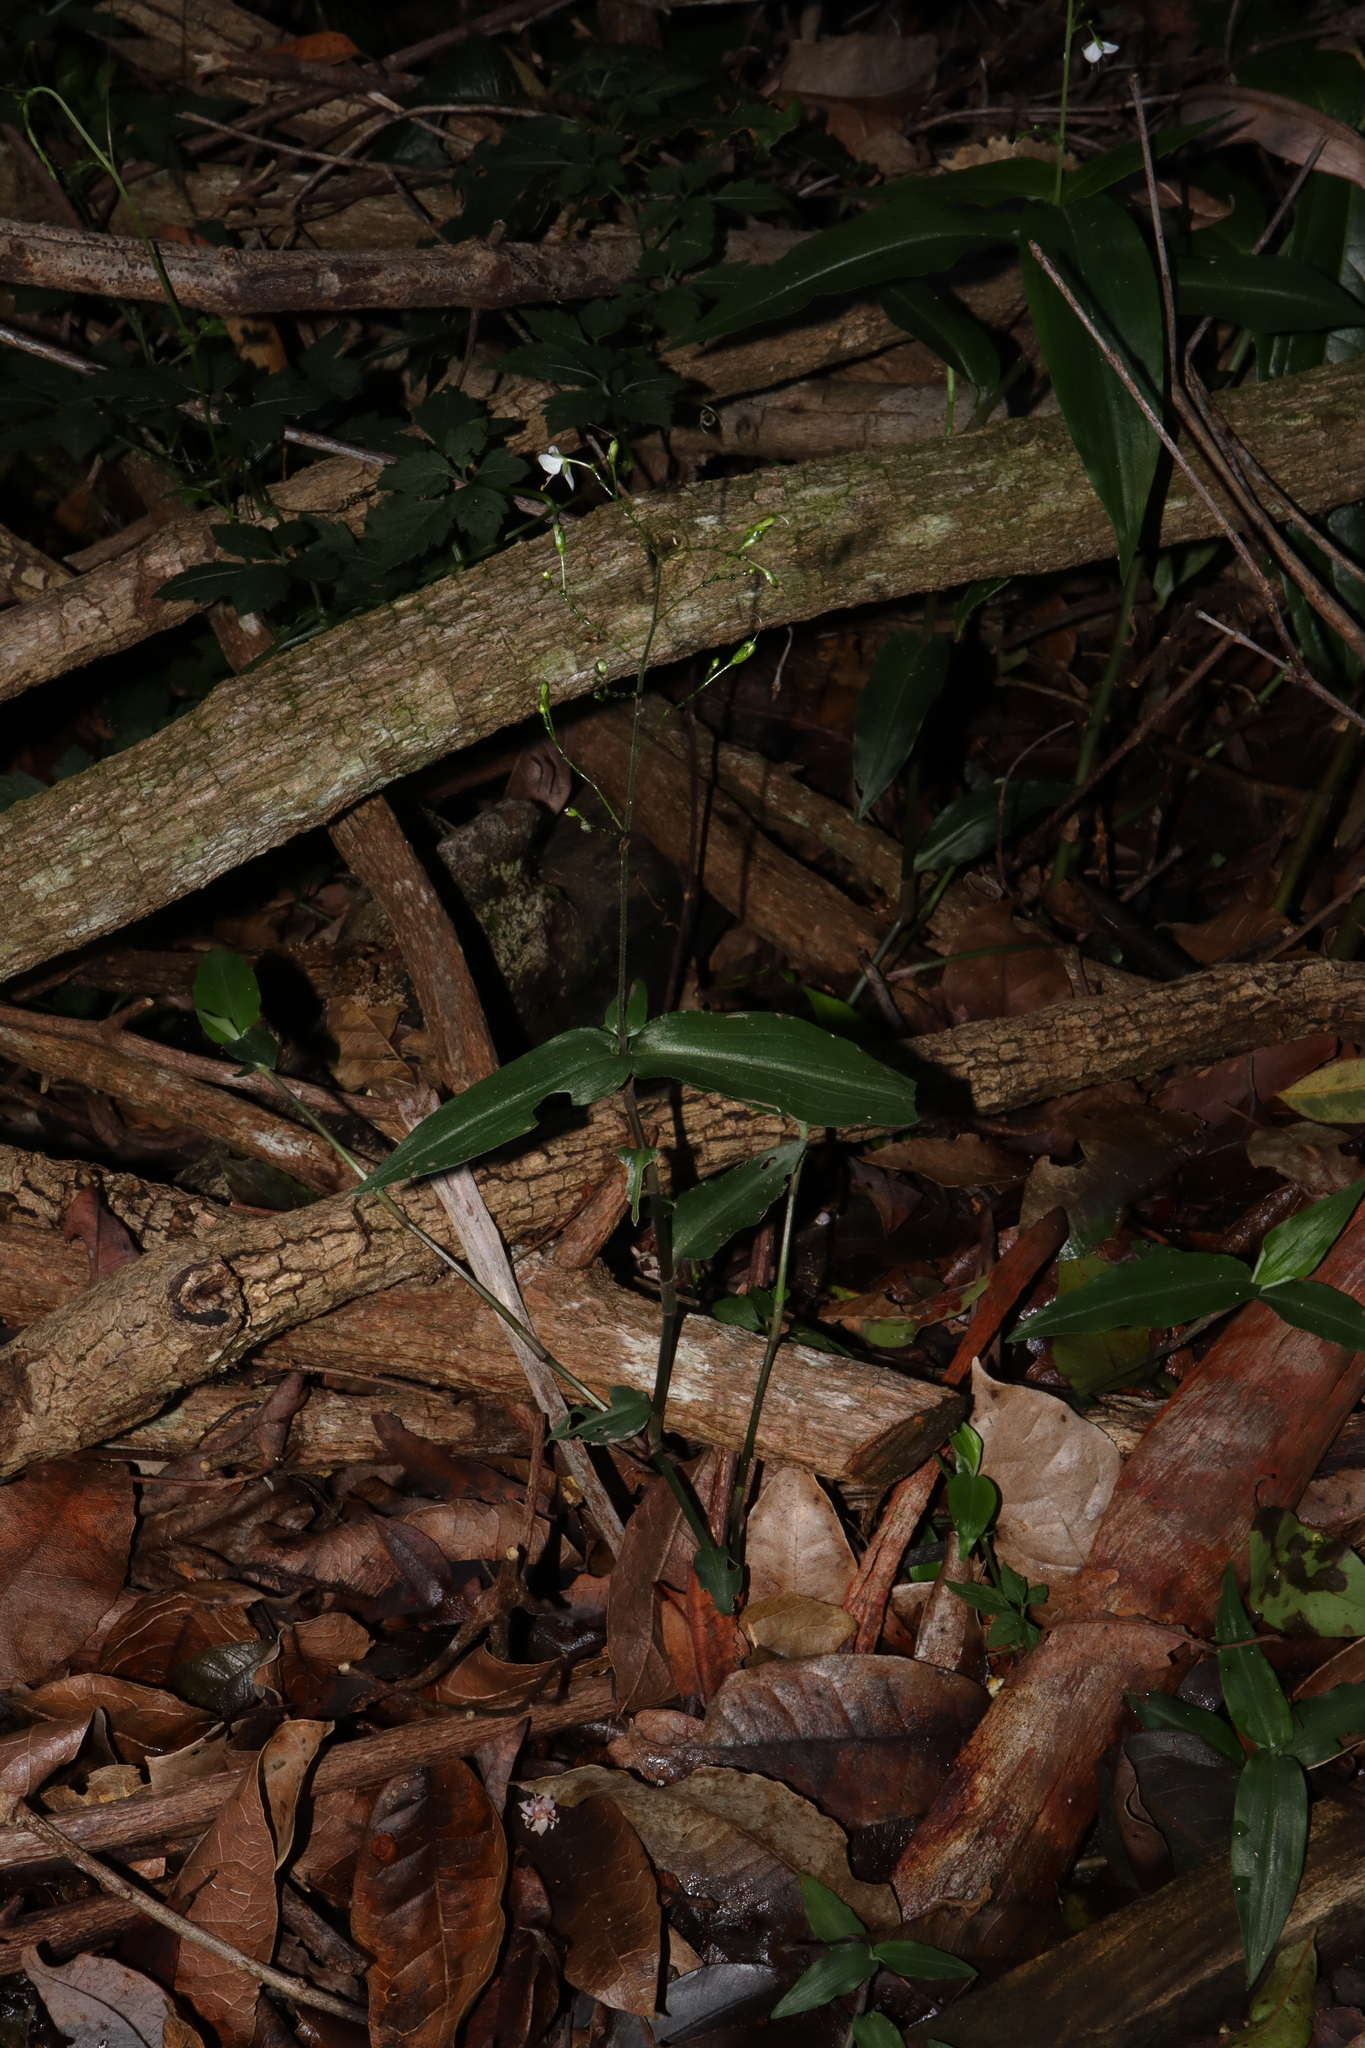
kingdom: Plantae
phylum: Tracheophyta
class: Liliopsida
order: Commelinales
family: Commelinaceae
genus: Aneilema
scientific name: Aneilema acuminatum
